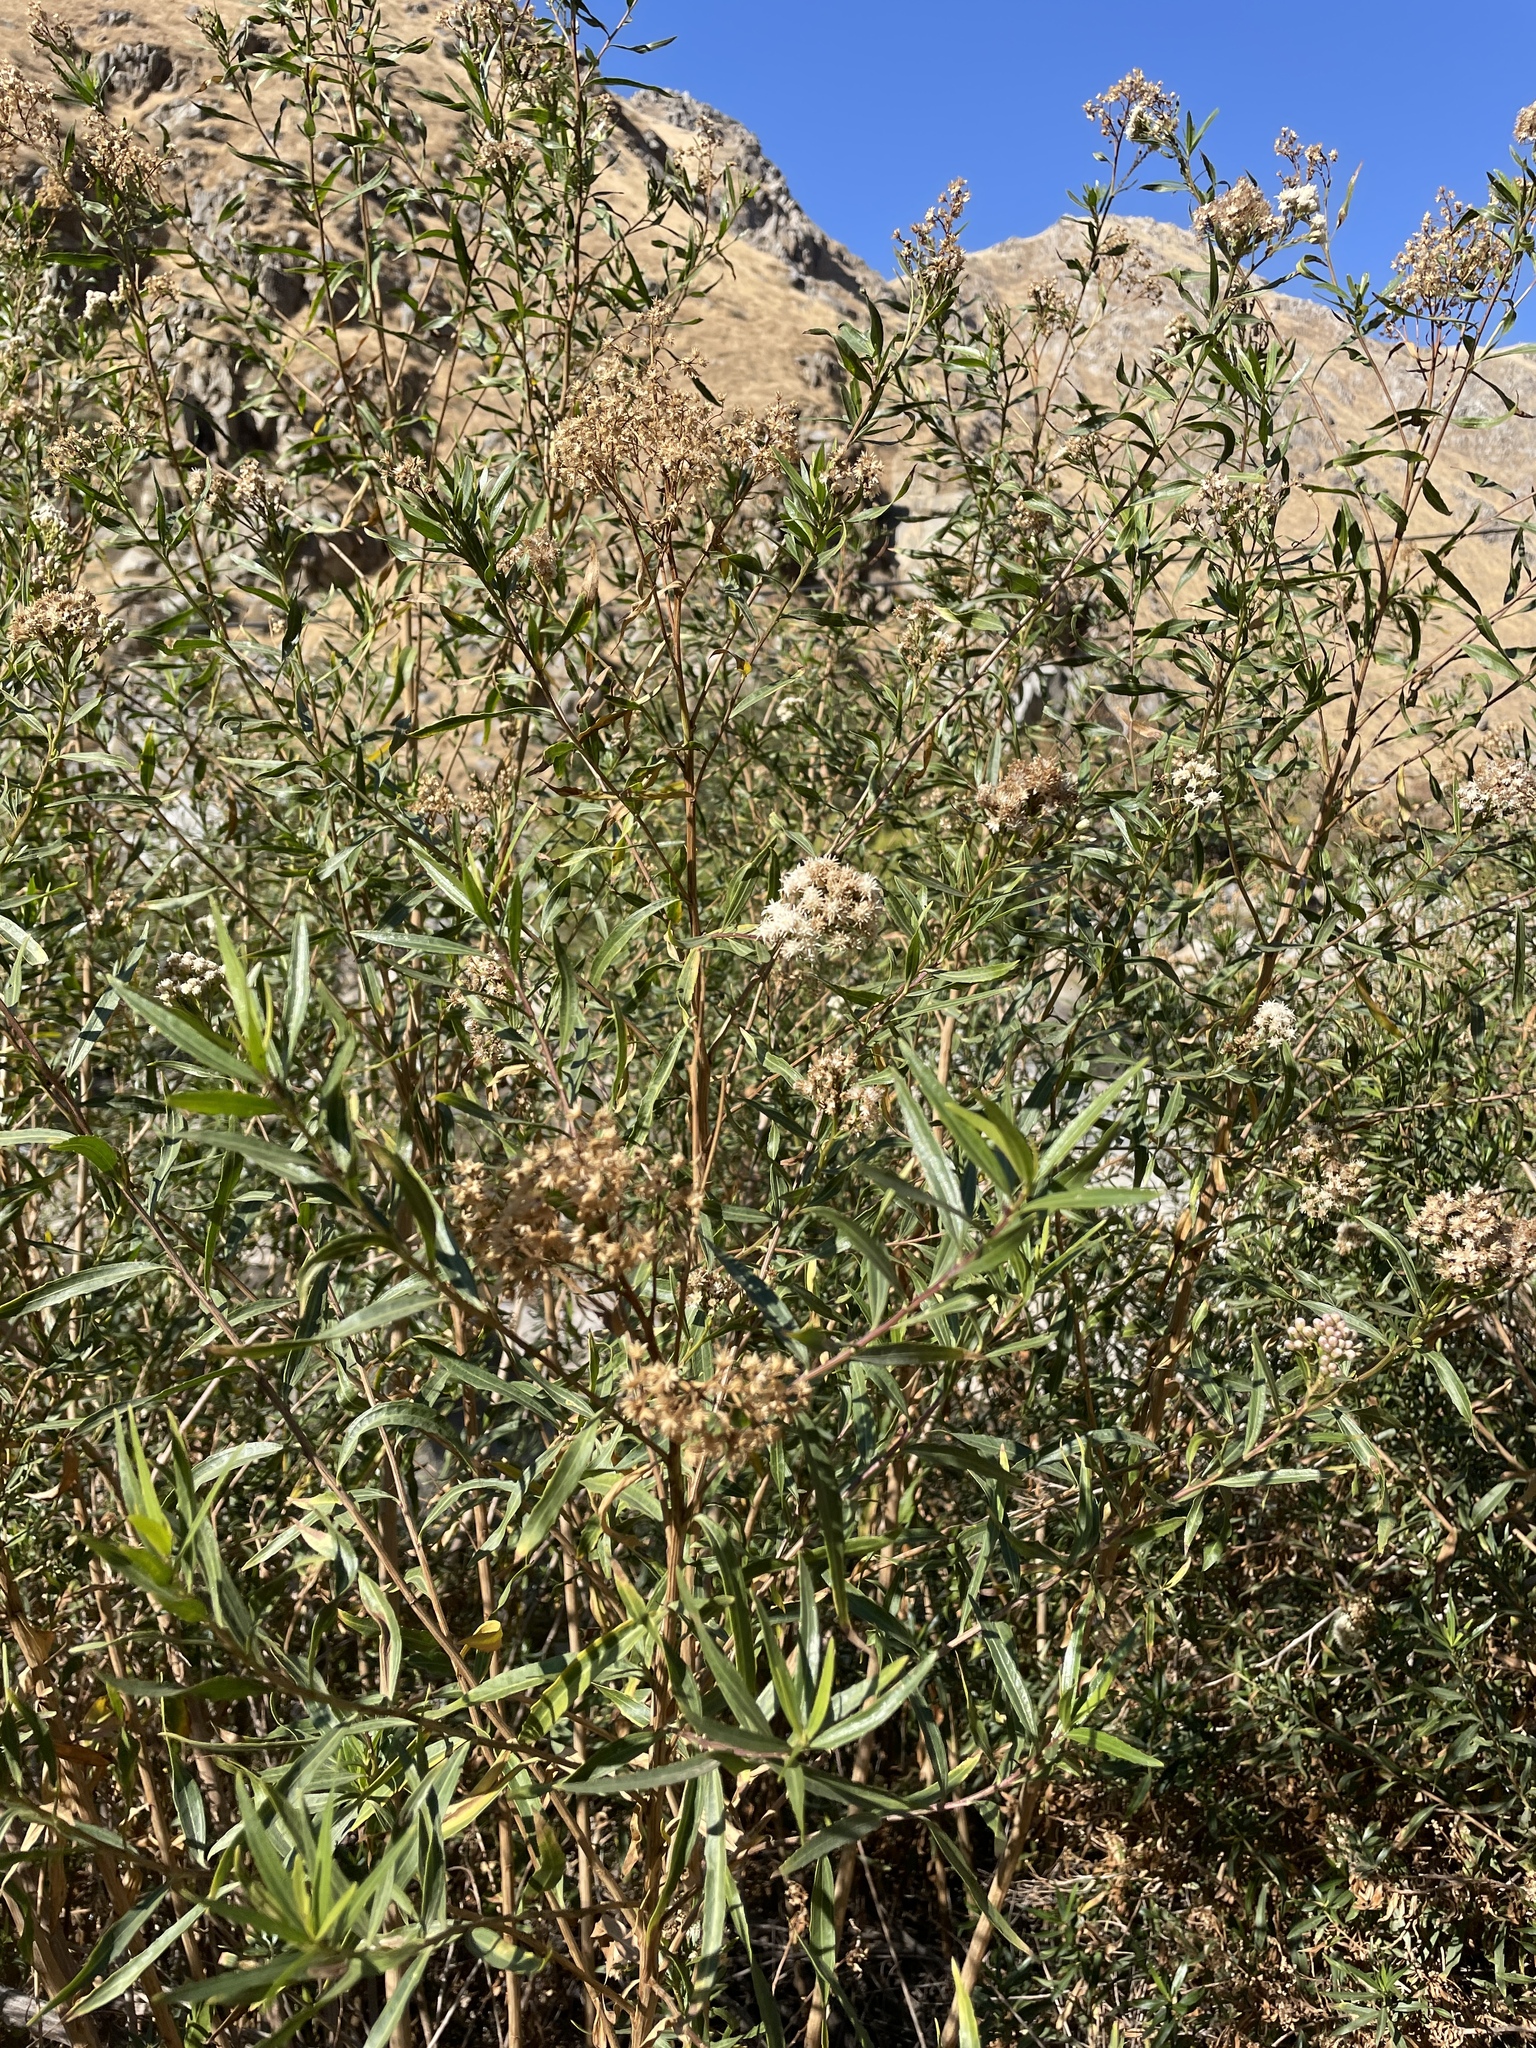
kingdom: Plantae
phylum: Tracheophyta
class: Magnoliopsida
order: Asterales
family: Asteraceae
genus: Baccharis
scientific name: Baccharis salicifolia
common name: Sticky baccharis
